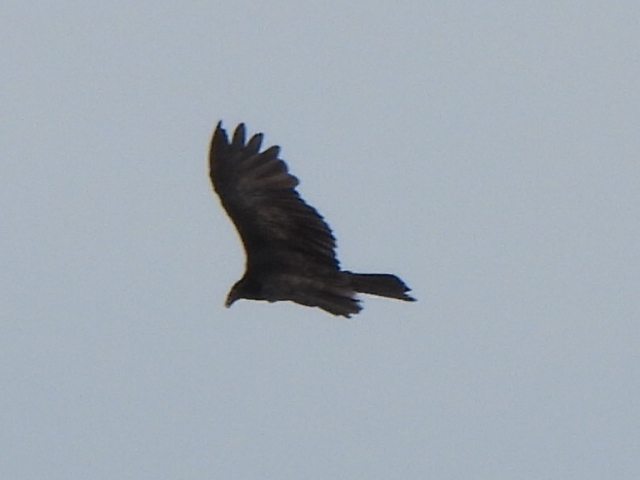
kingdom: Animalia
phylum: Chordata
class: Aves
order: Accipitriformes
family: Cathartidae
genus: Cathartes
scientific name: Cathartes aura
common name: Turkey vulture
